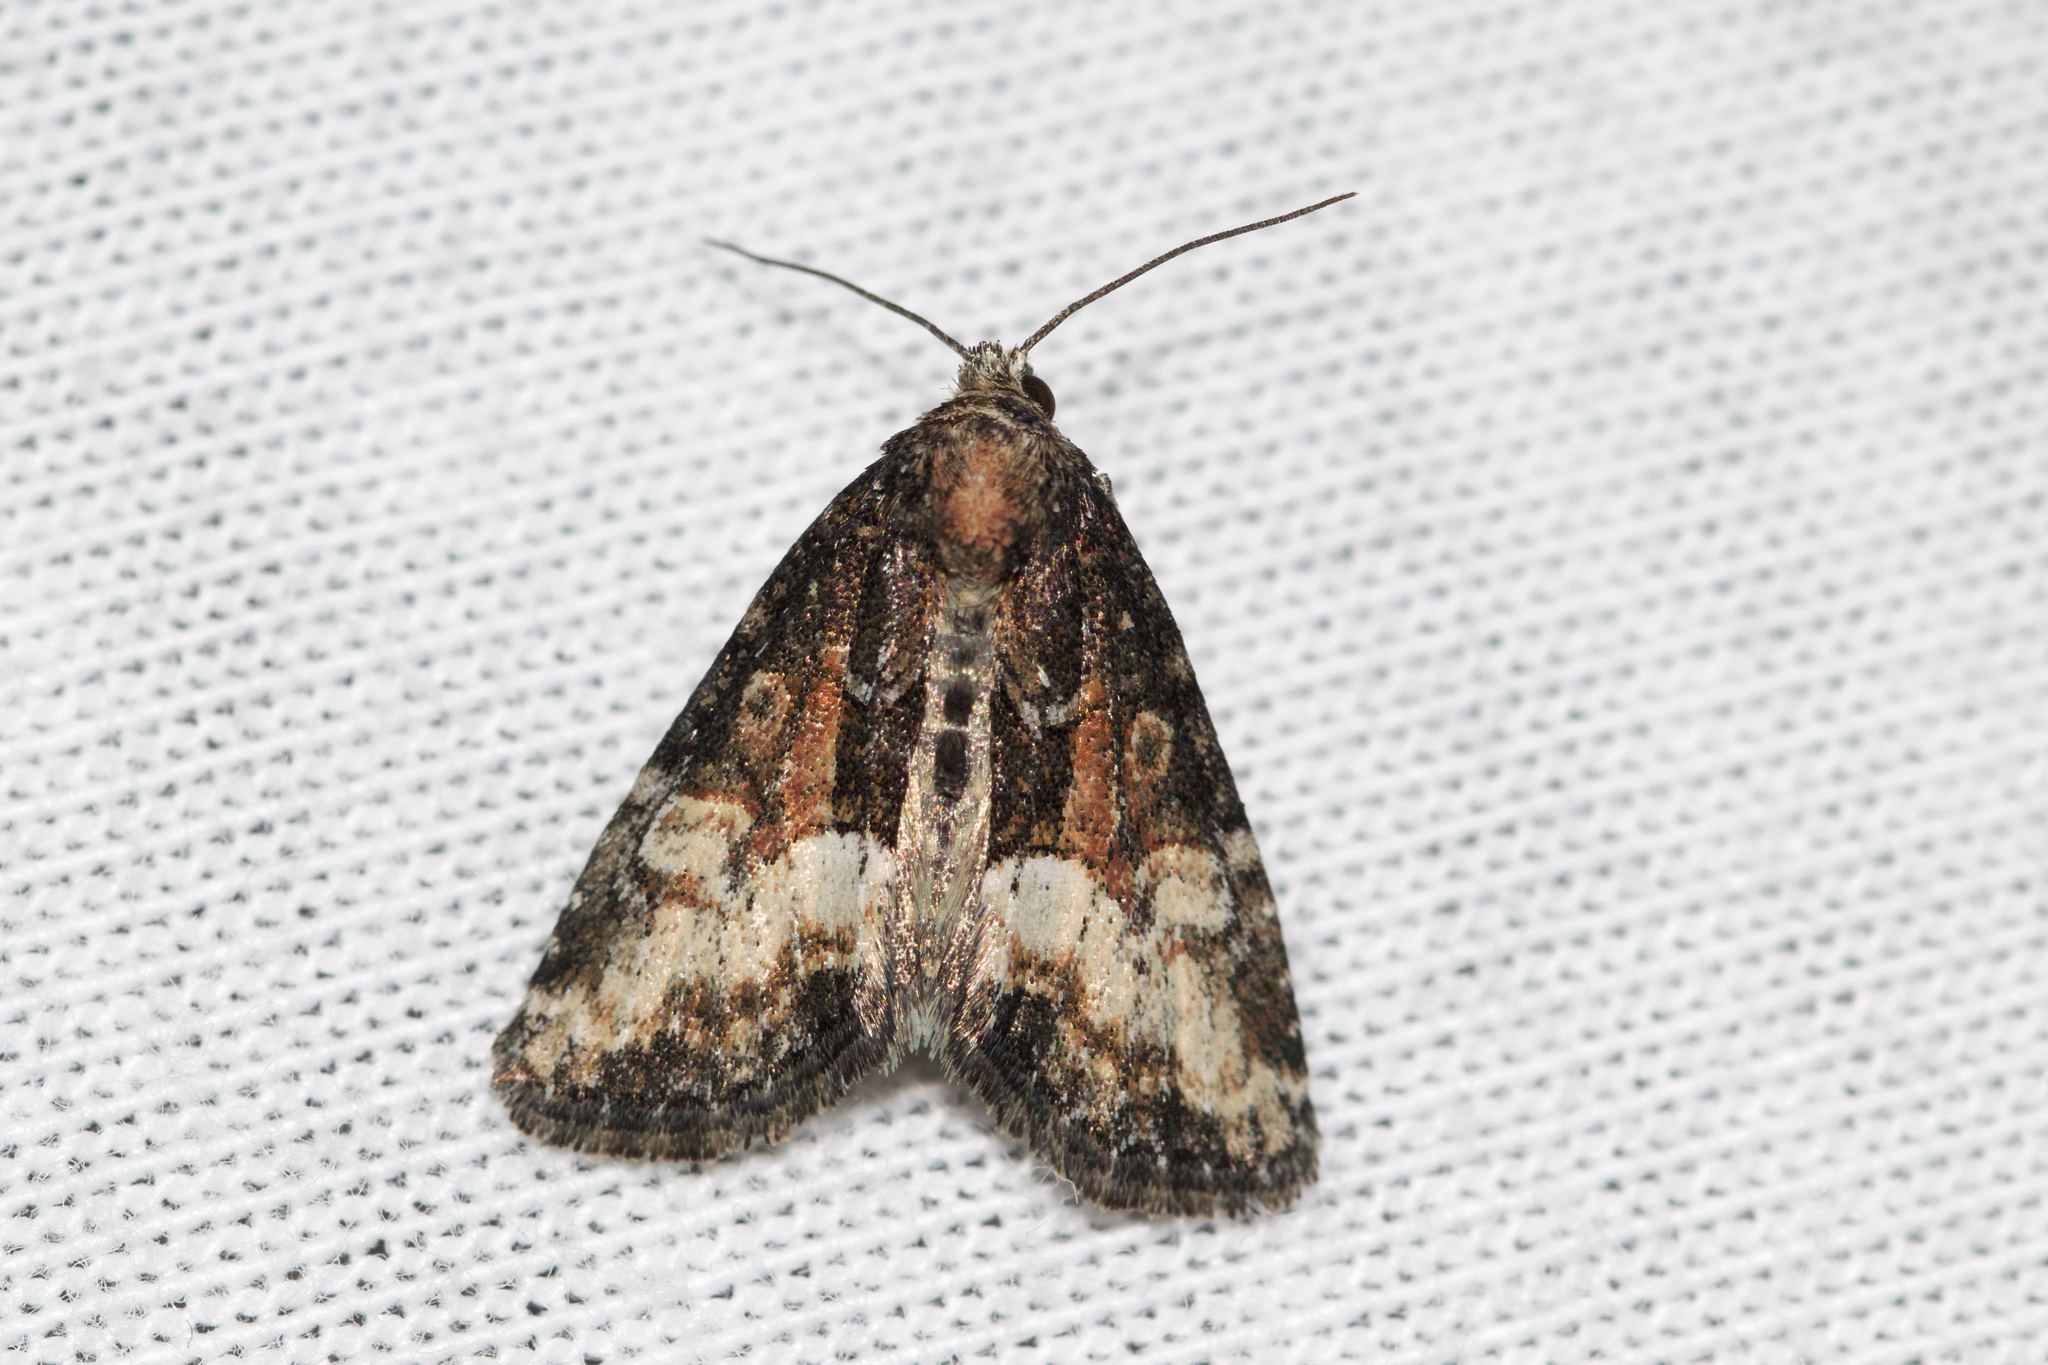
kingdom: Animalia
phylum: Arthropoda
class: Insecta
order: Lepidoptera
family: Noctuidae
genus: Neoligia
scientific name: Neoligia subjuncta
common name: Connected brocade
